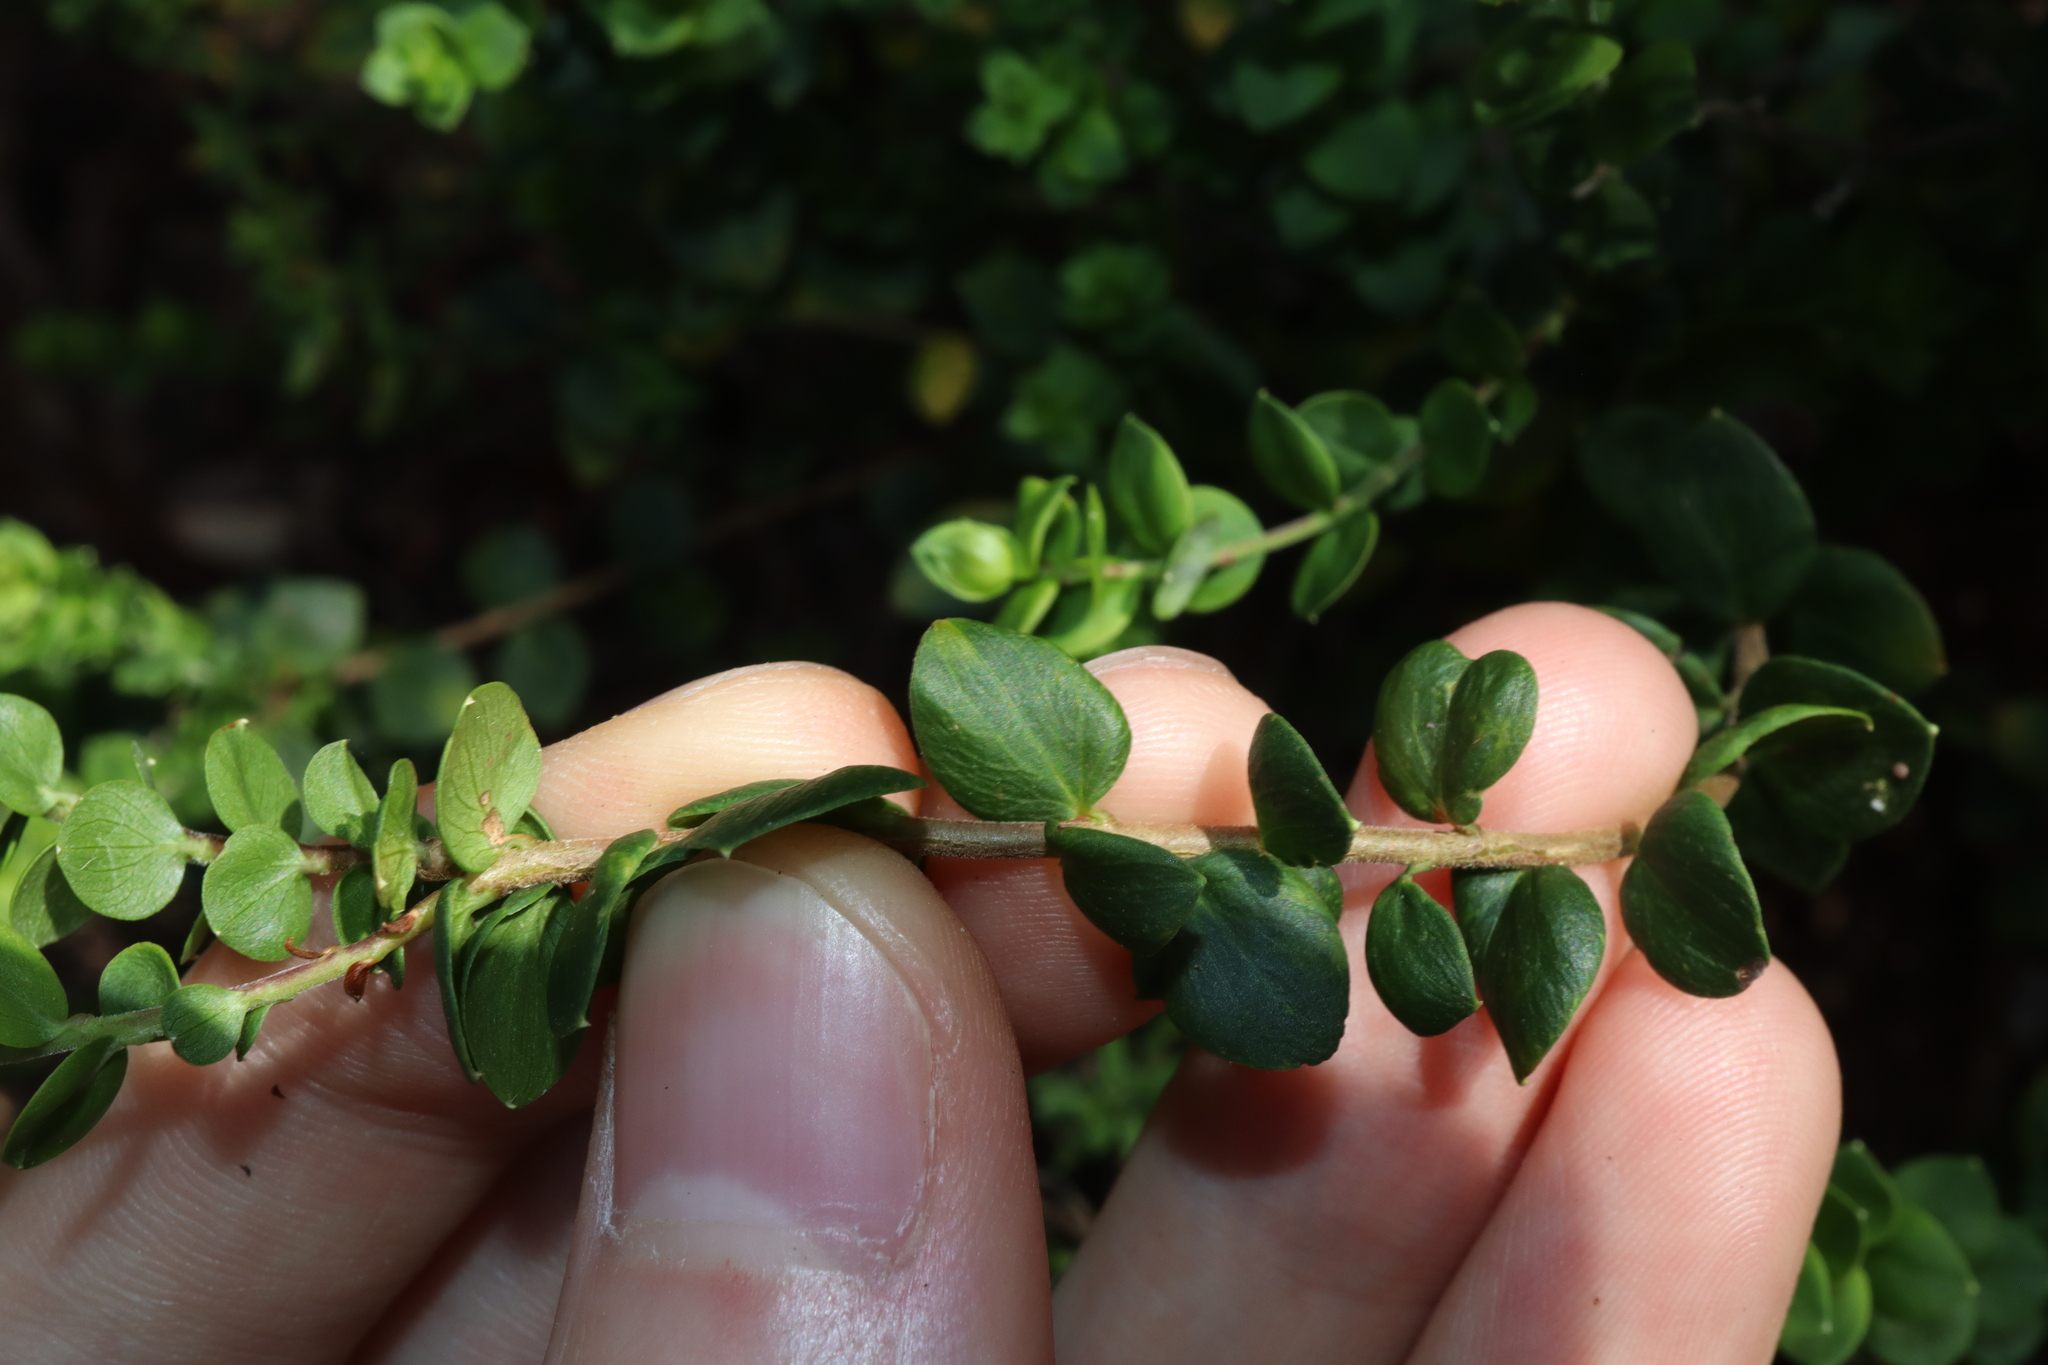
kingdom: Plantae
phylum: Tracheophyta
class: Magnoliopsida
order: Apiales
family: Apiaceae
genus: Platysace
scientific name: Platysace lanceolata
